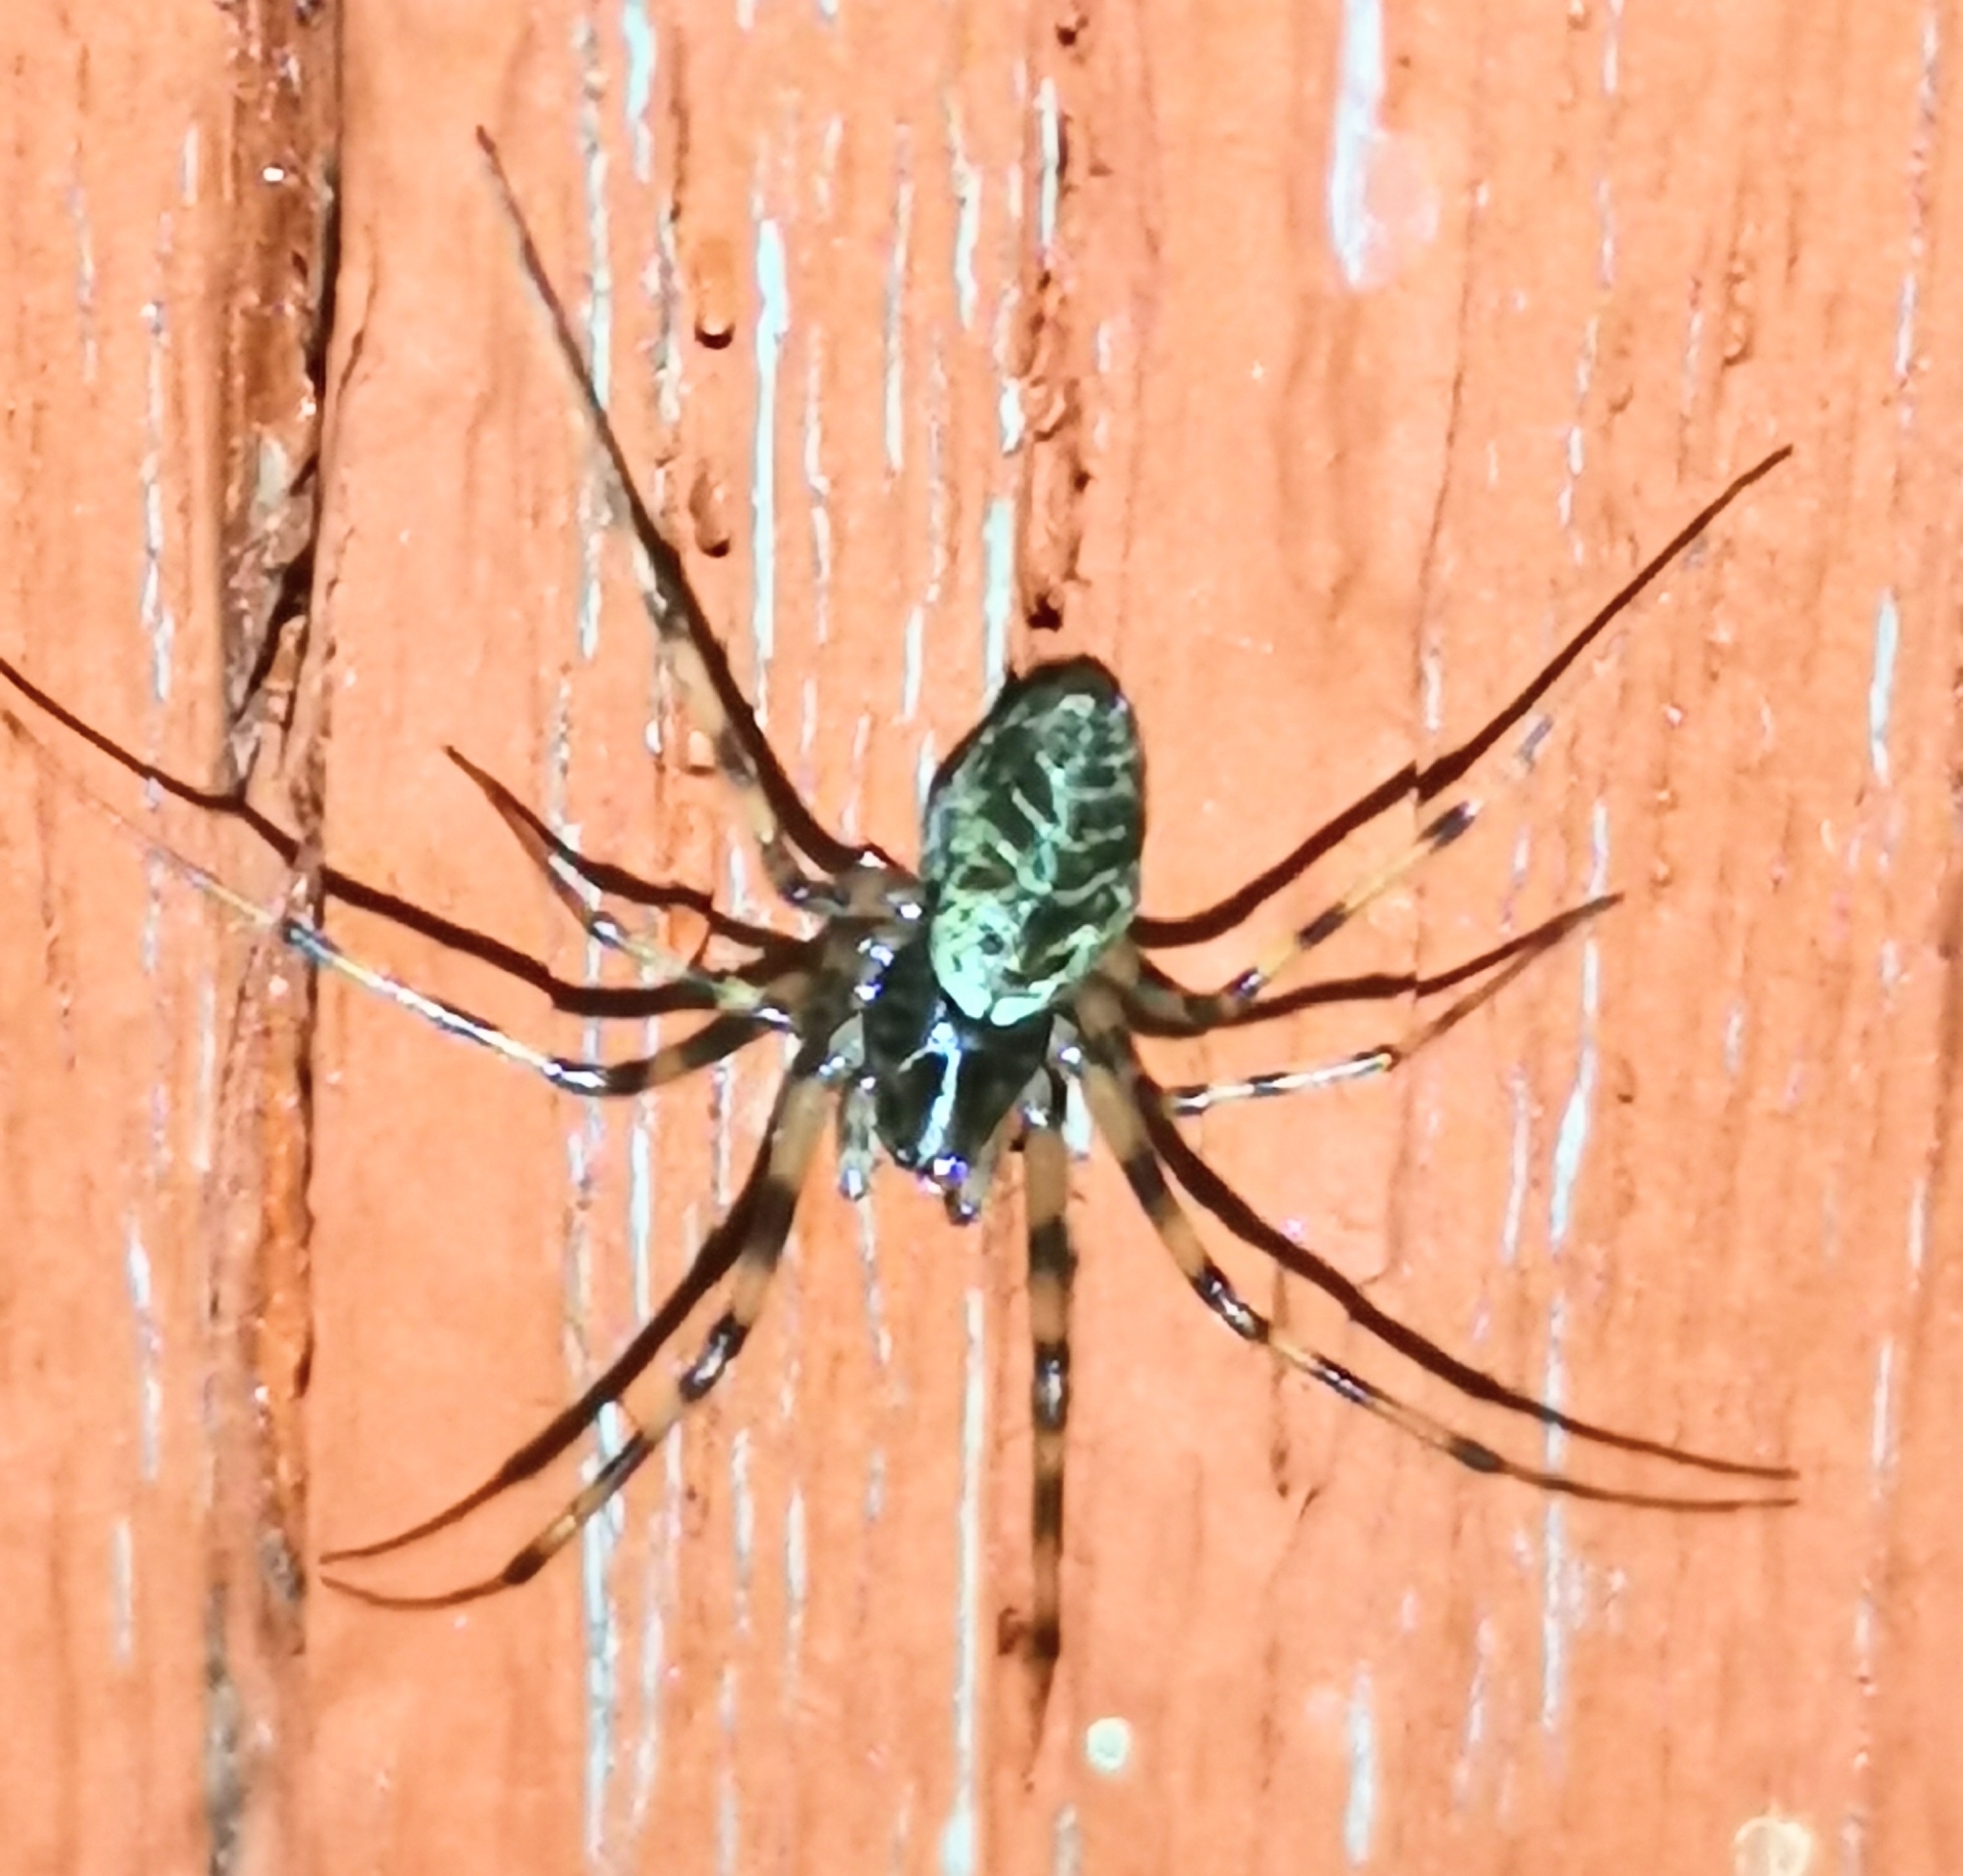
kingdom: Animalia
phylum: Arthropoda
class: Arachnida
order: Araneae
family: Linyphiidae
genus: Drapetisca
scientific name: Drapetisca socialis
